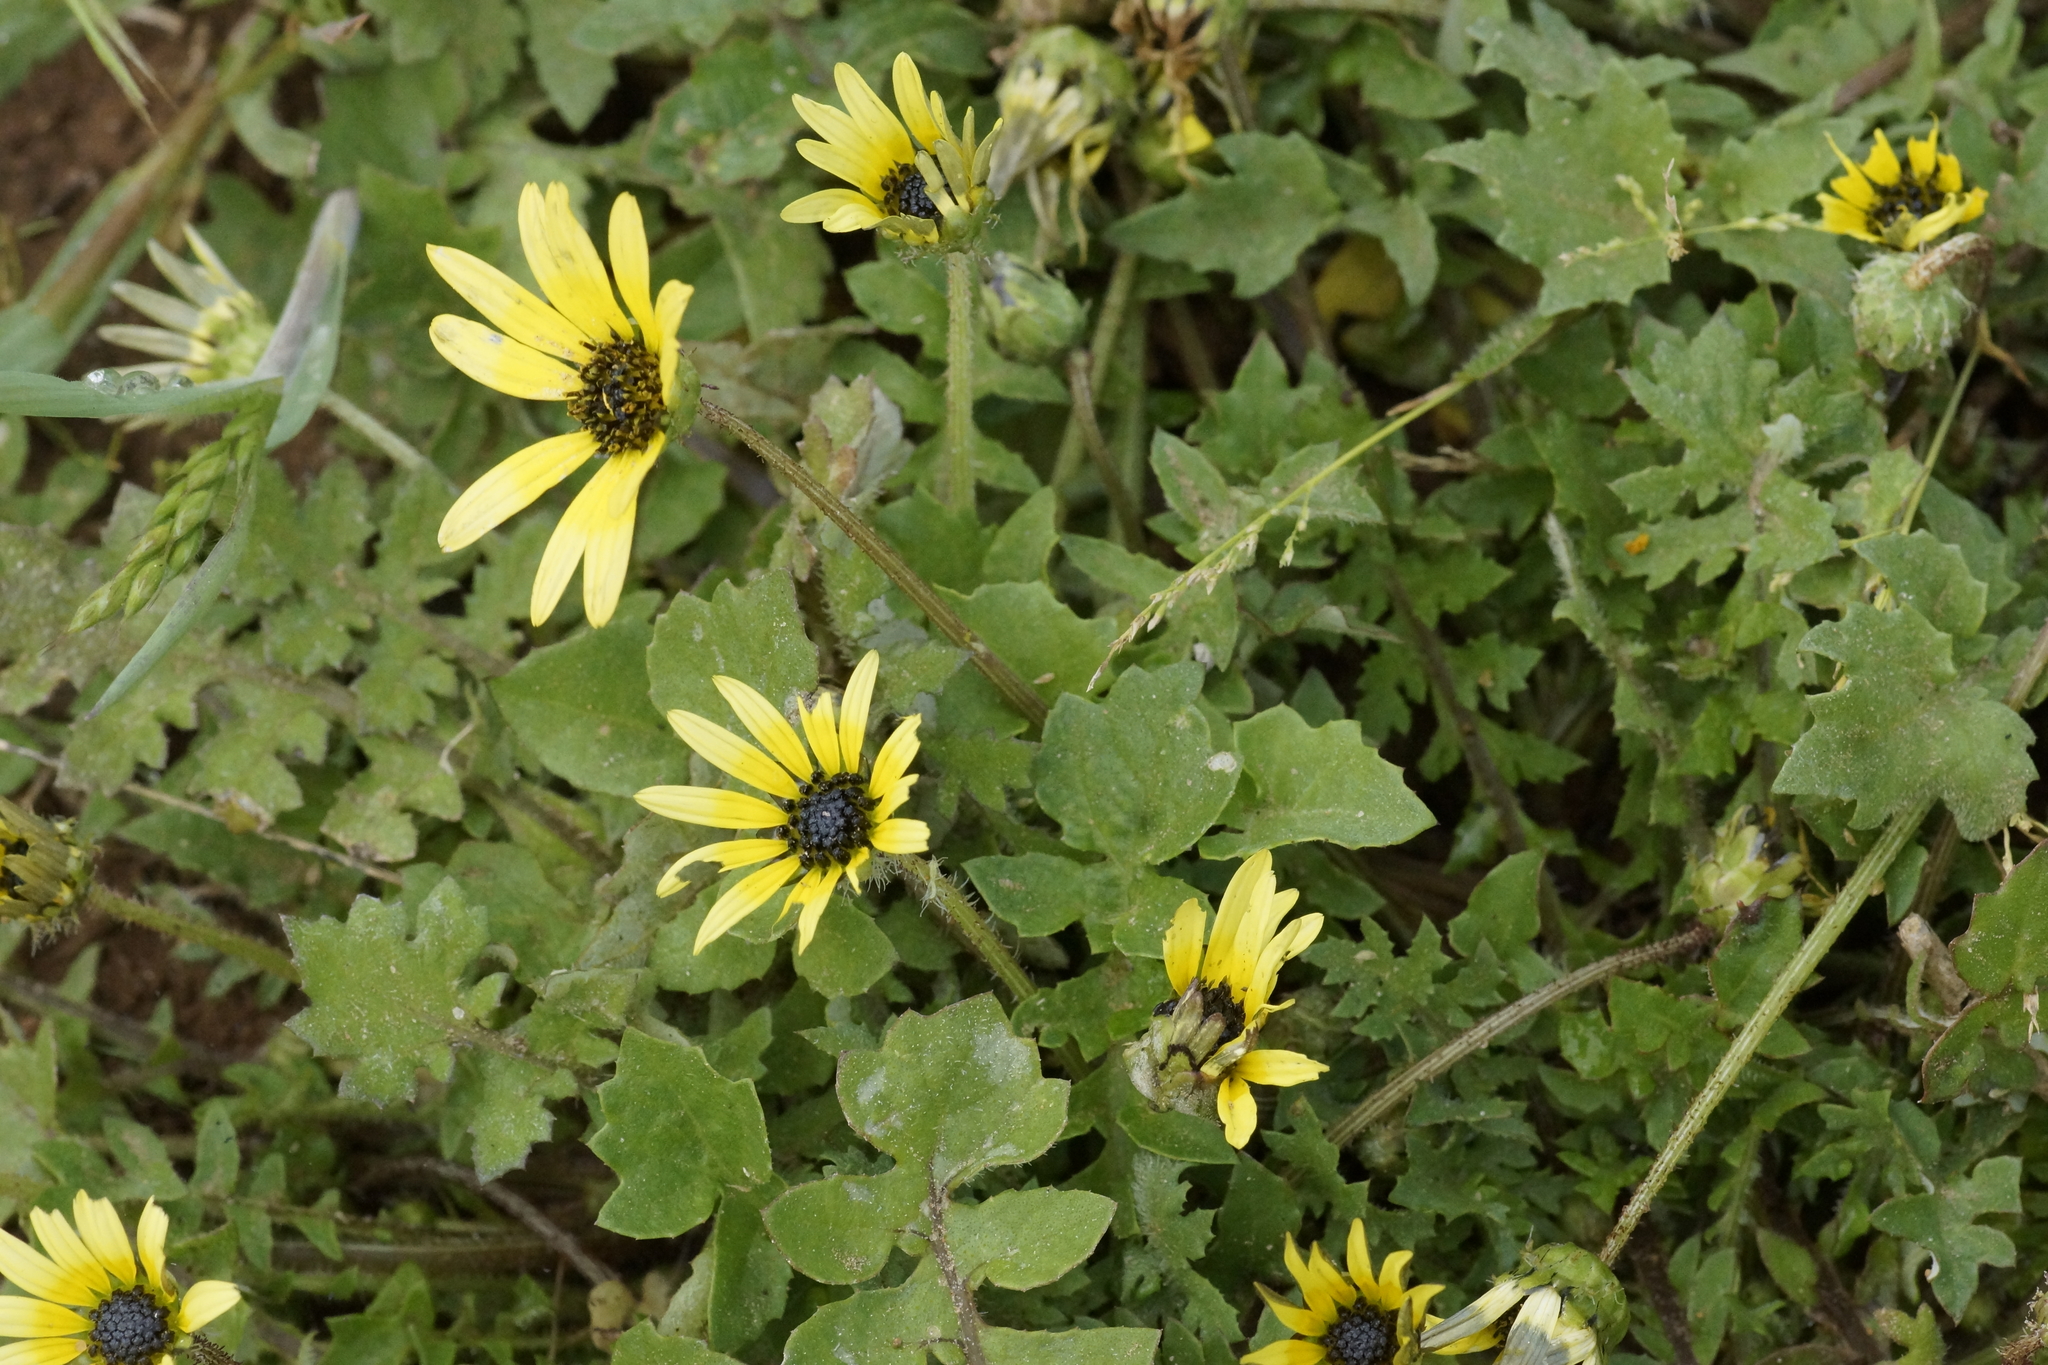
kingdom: Plantae
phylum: Tracheophyta
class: Magnoliopsida
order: Asterales
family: Asteraceae
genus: Arctotheca
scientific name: Arctotheca calendula
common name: Capeweed
